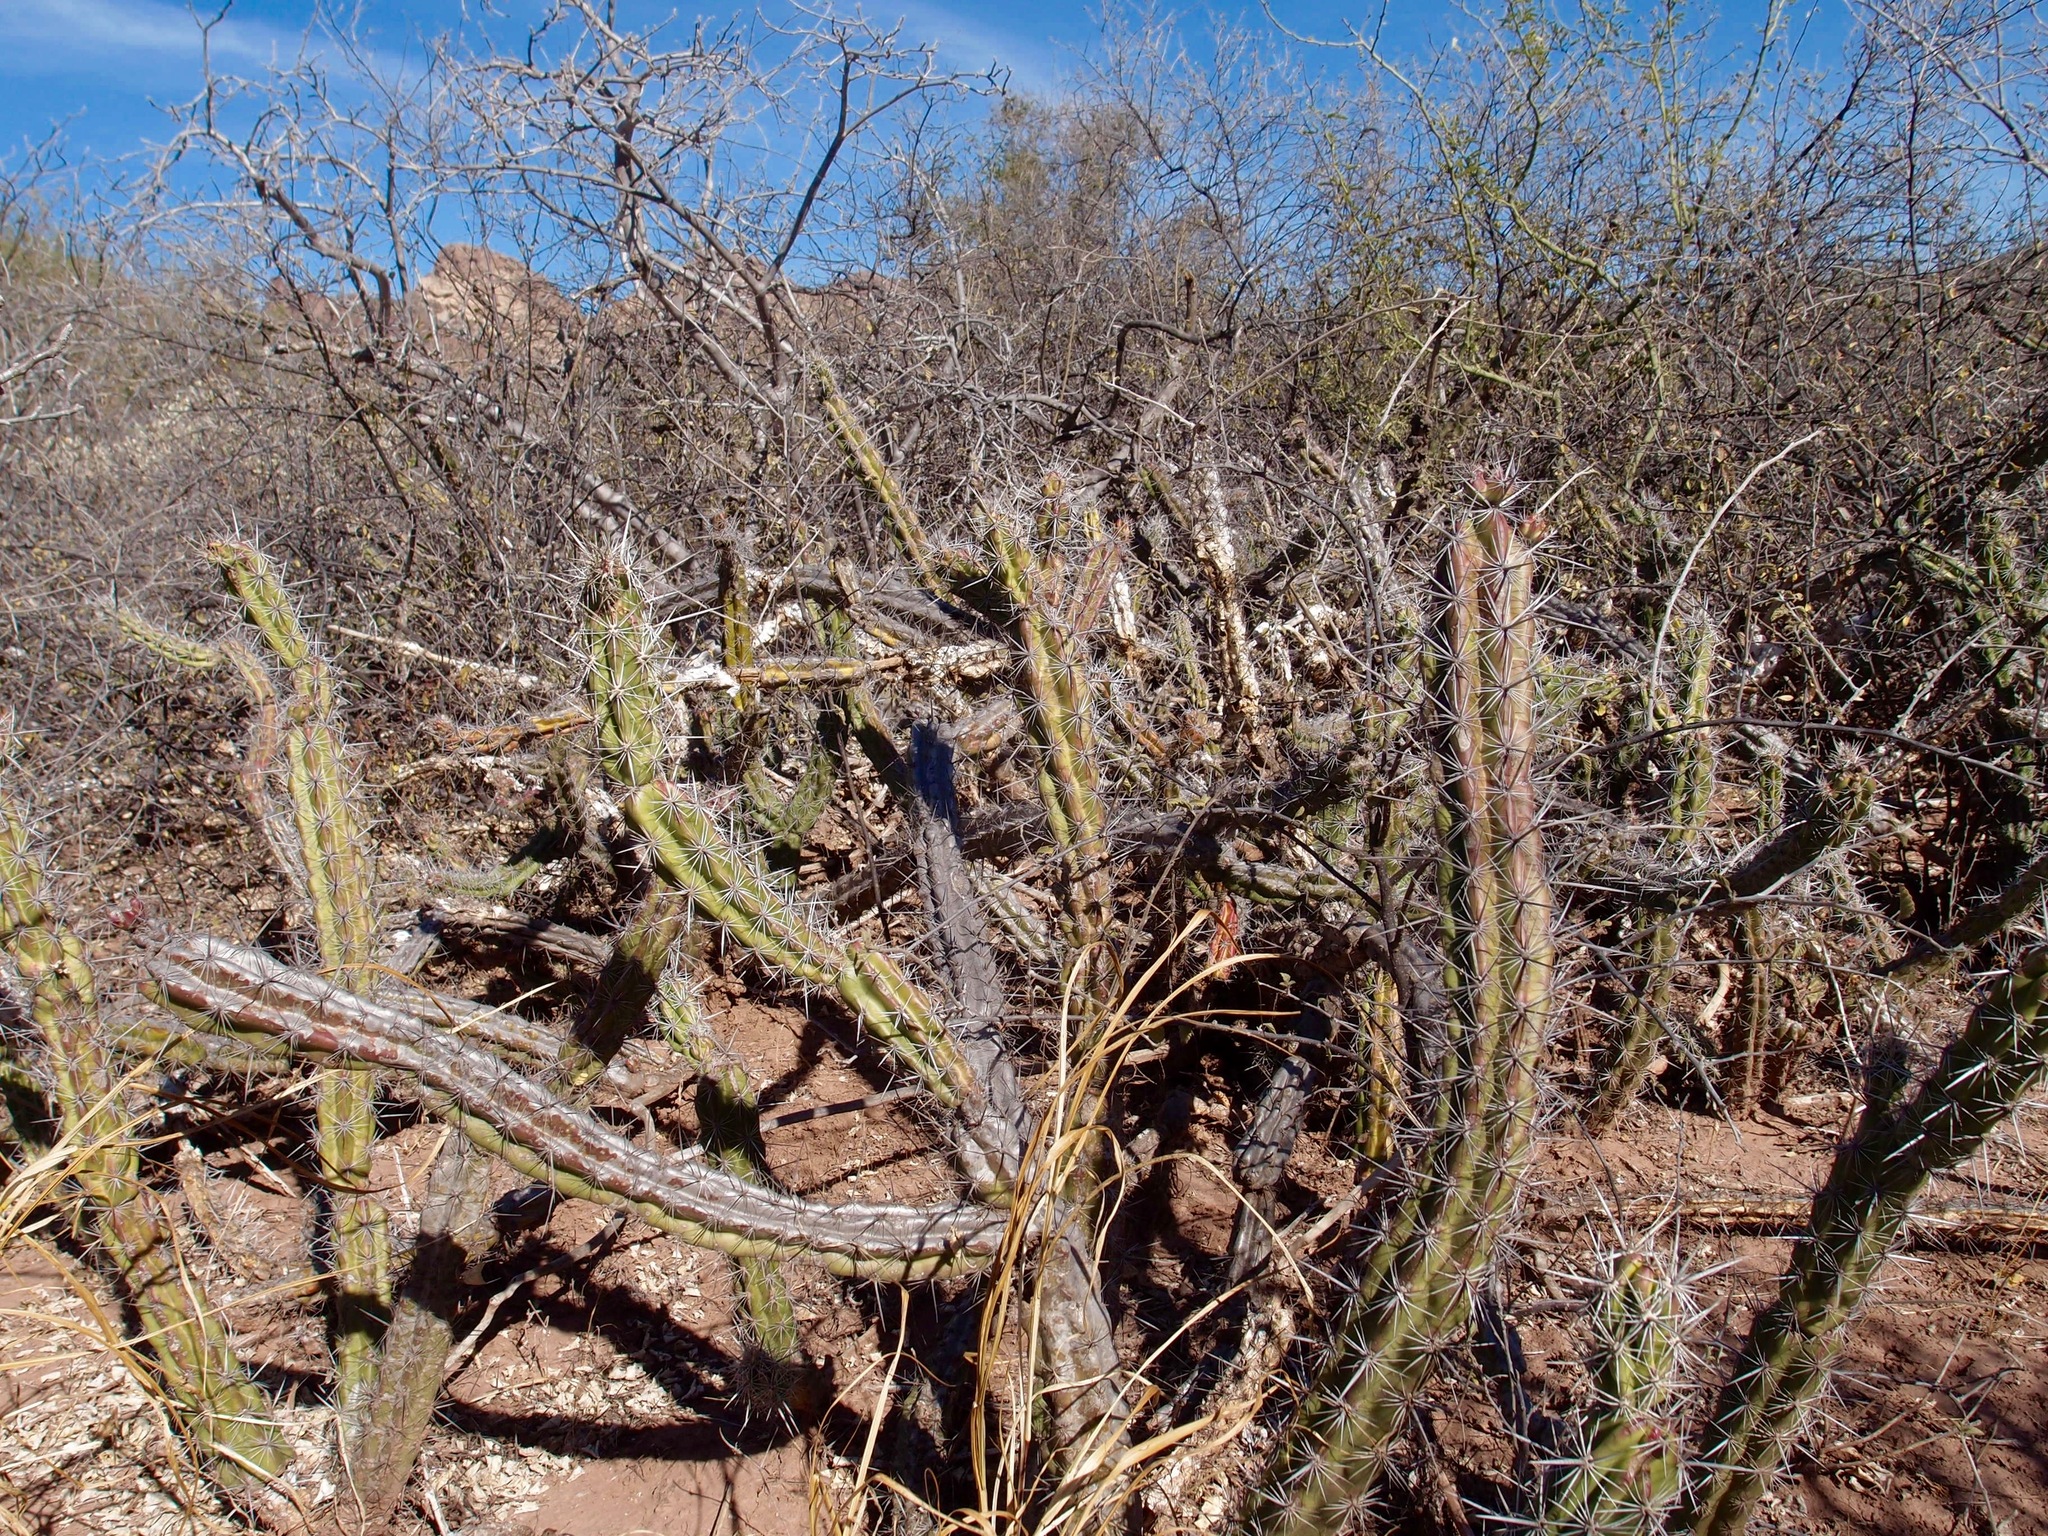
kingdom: Plantae
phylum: Tracheophyta
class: Magnoliopsida
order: Caryophyllales
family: Cactaceae
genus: Stenocereus
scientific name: Stenocereus alamosensis
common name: Octopus cactus
